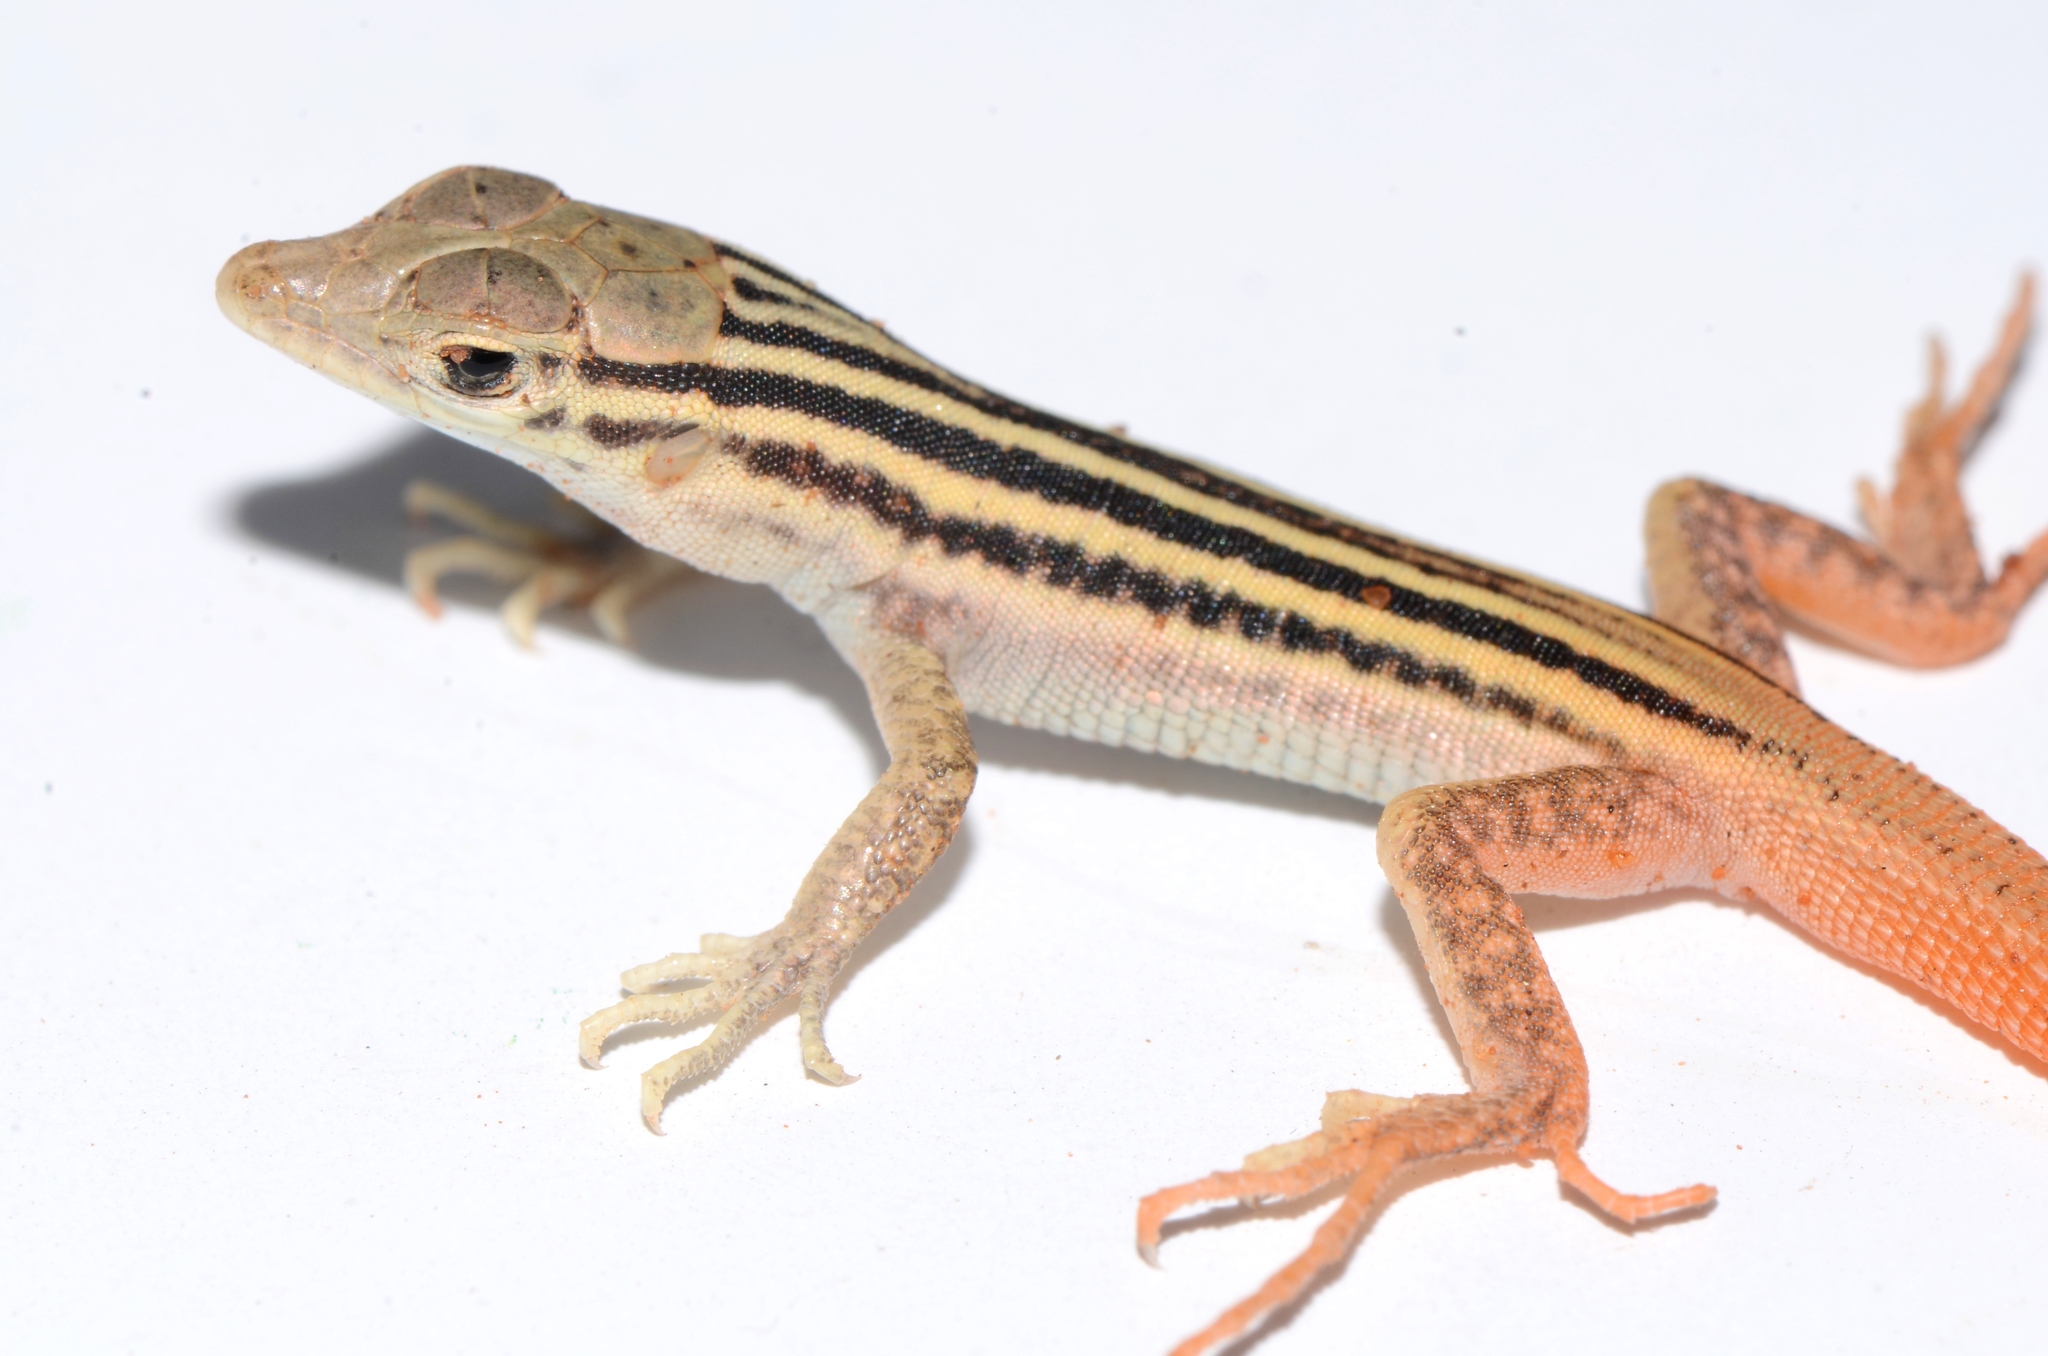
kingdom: Animalia
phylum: Chordata
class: Squamata
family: Lacertidae
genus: Pedioplanis
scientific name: Pedioplanis namaquensis
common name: Namaqua sand lizard
